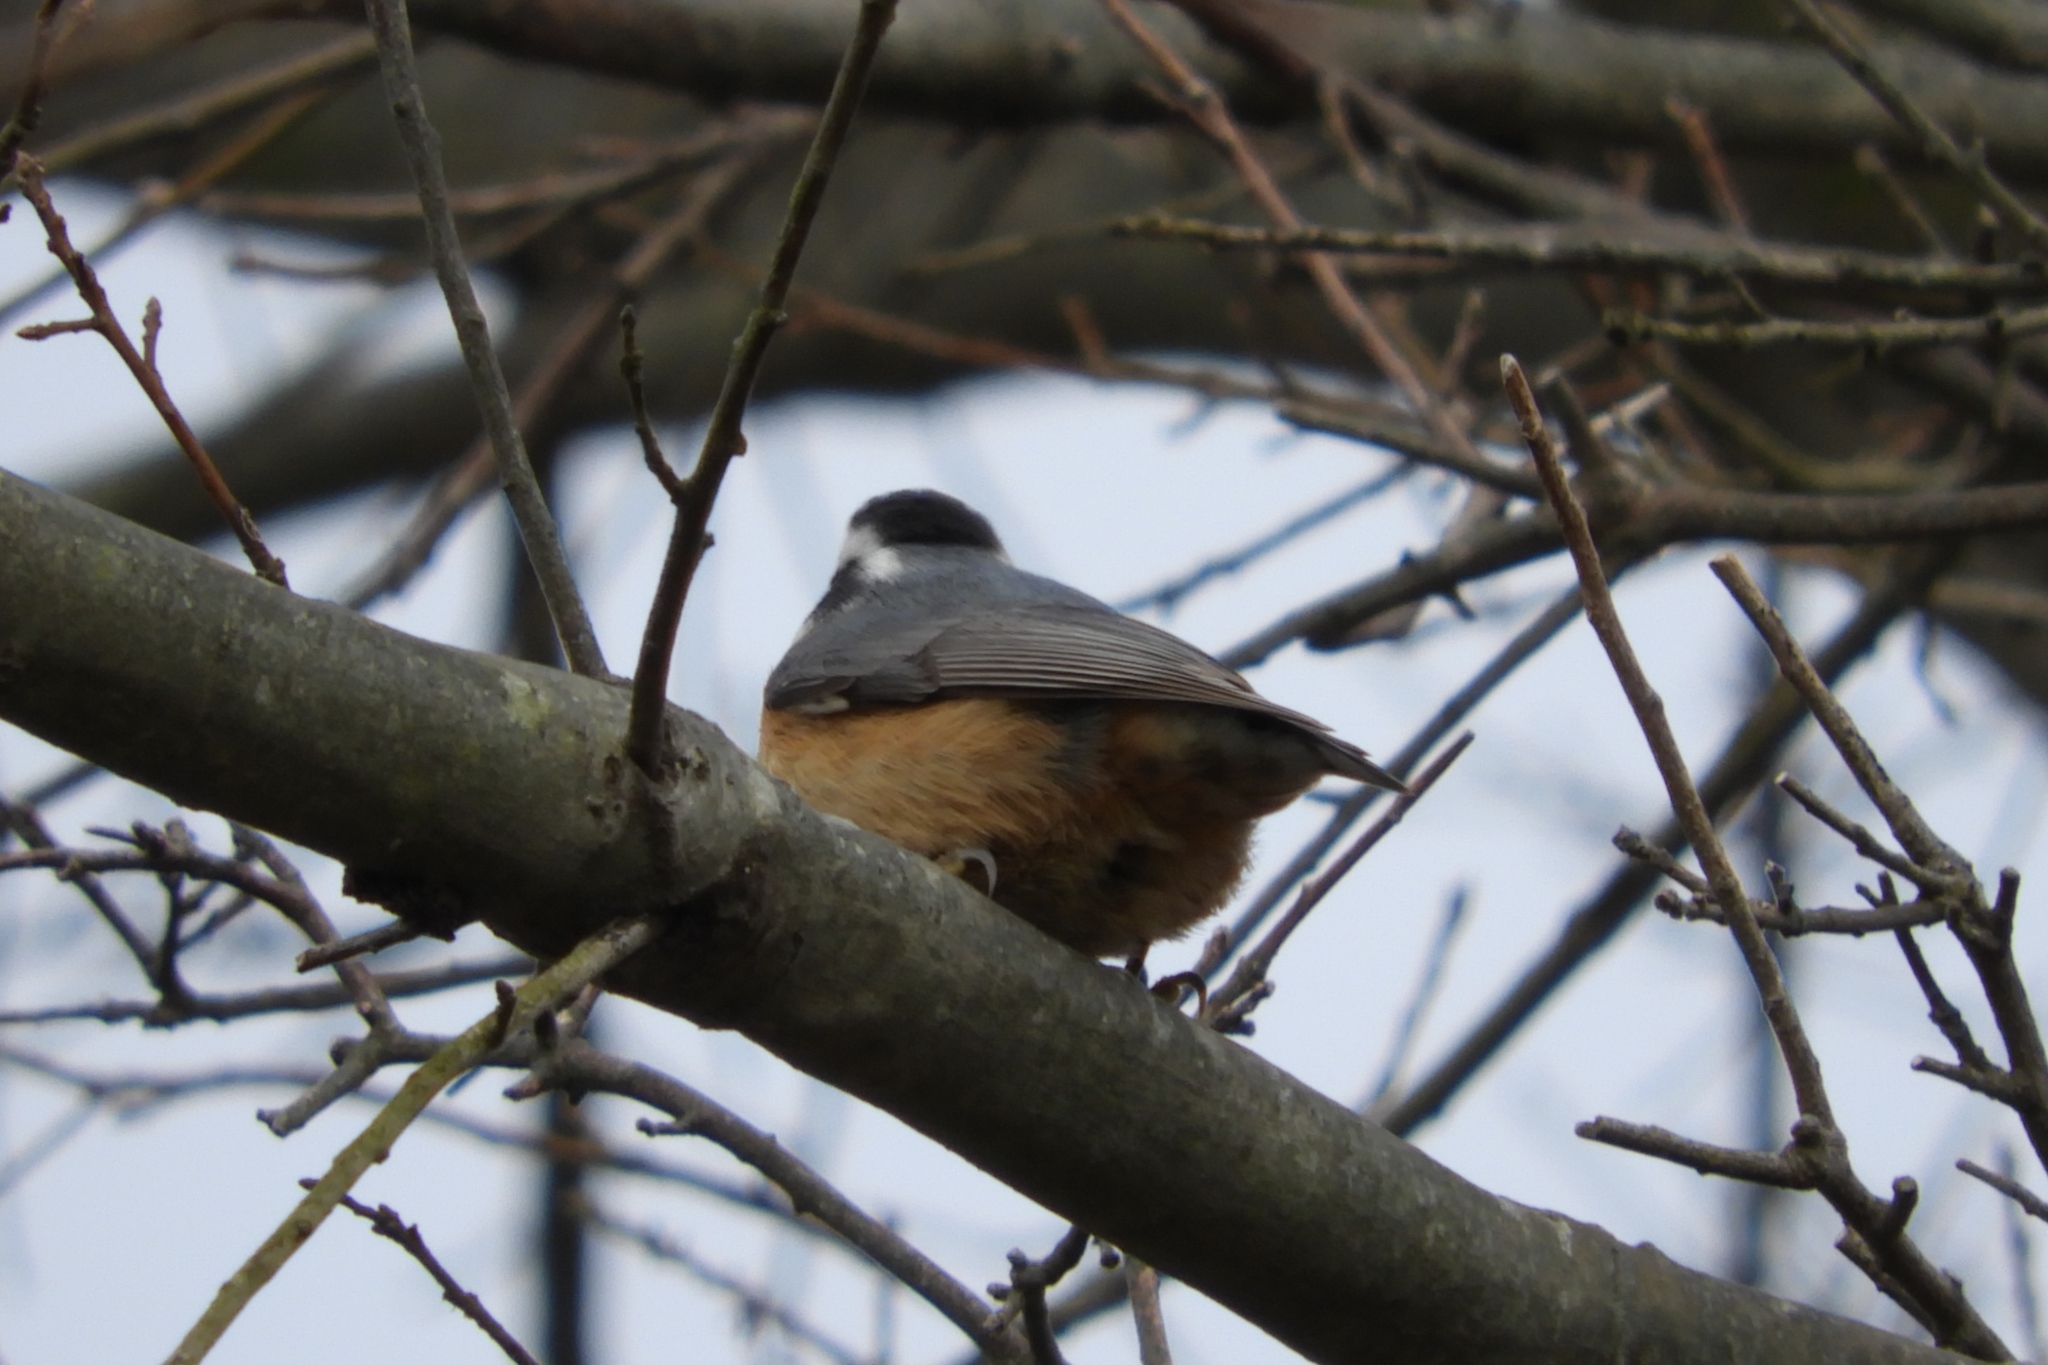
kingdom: Animalia
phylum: Chordata
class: Aves
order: Passeriformes
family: Sittidae
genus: Sitta
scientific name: Sitta canadensis
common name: Red-breasted nuthatch
